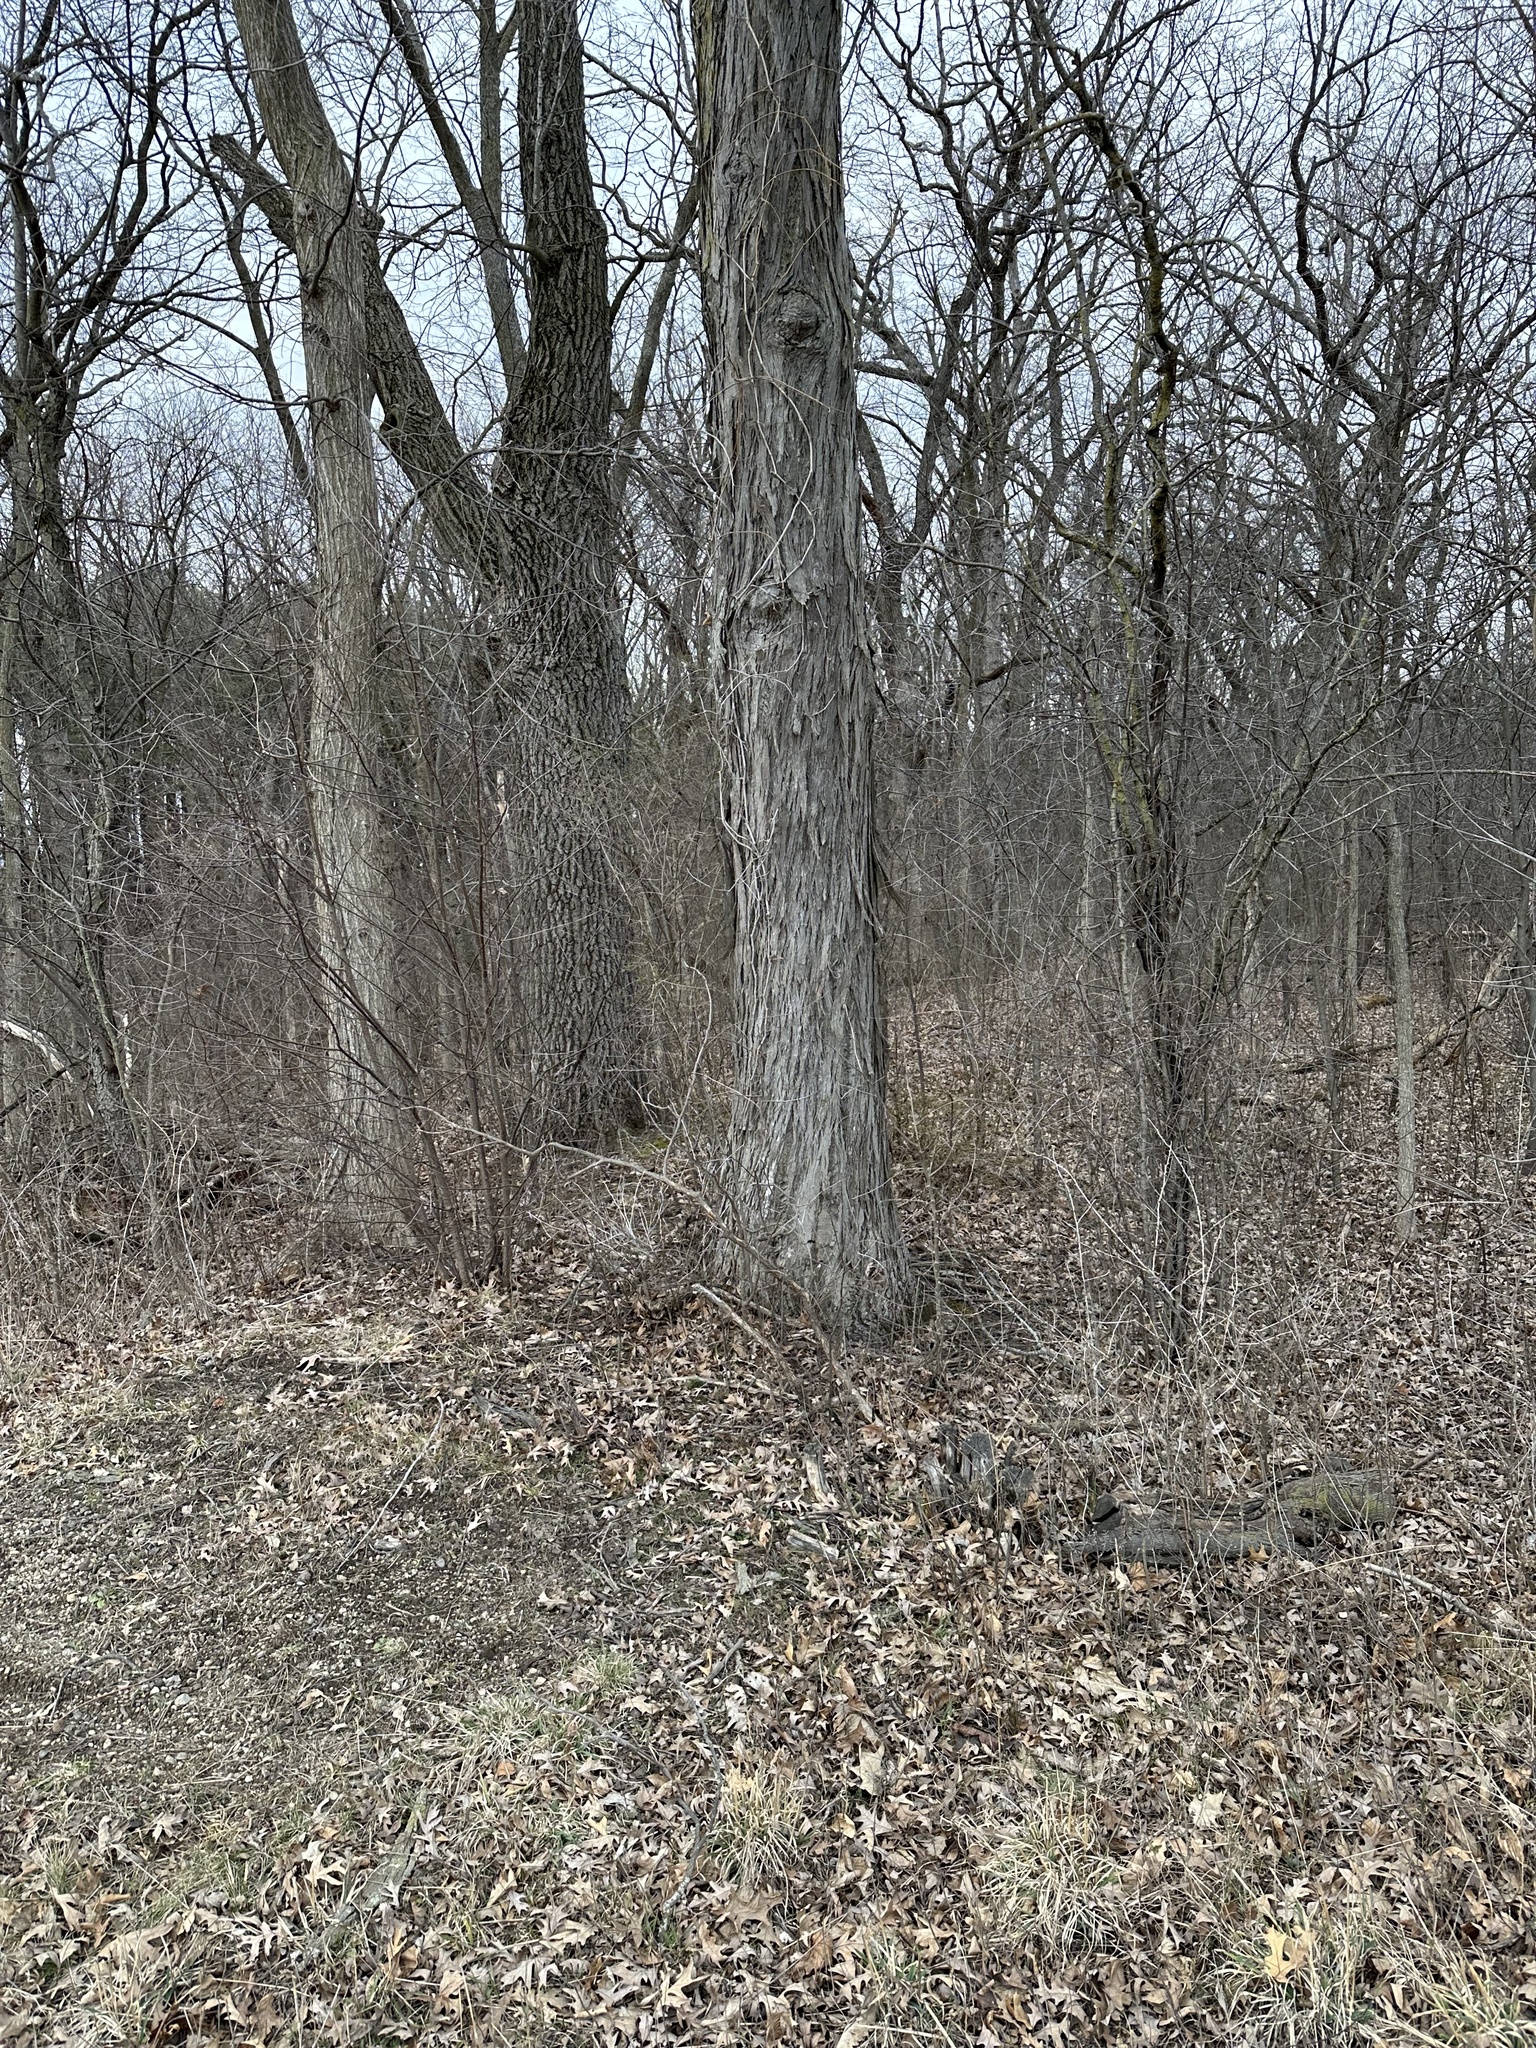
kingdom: Plantae
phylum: Tracheophyta
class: Magnoliopsida
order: Fagales
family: Juglandaceae
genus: Carya
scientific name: Carya ovata
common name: Shagbark hickory
